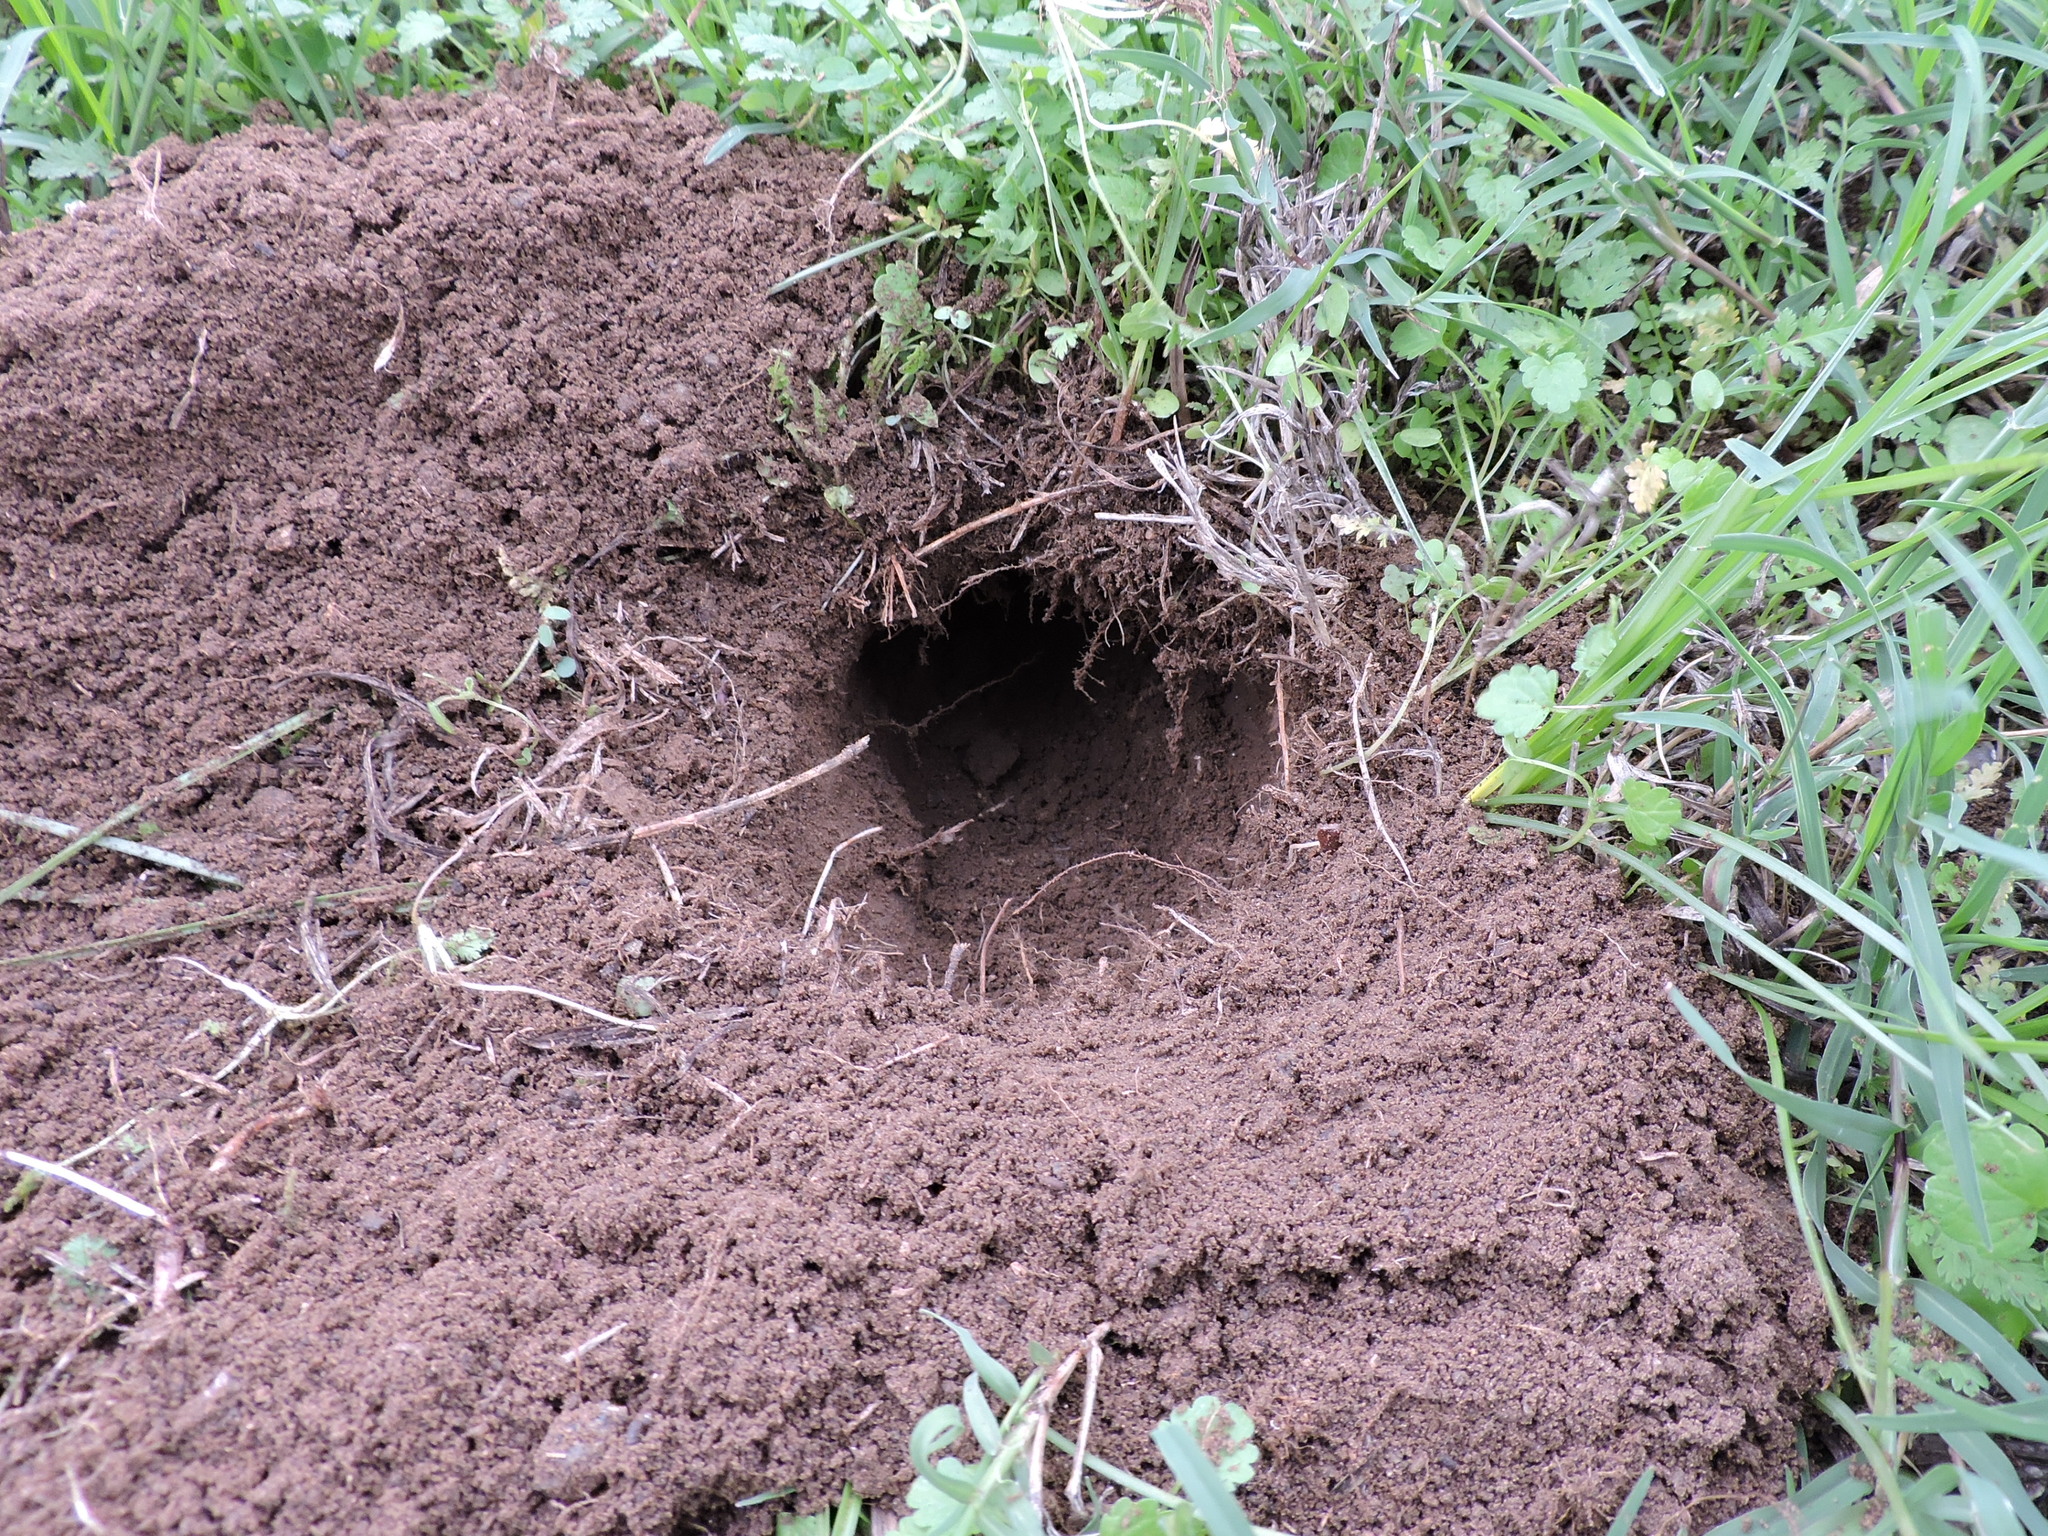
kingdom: Animalia
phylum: Chordata
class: Mammalia
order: Rodentia
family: Geomyidae
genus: Geomys
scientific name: Geomys texensis
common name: Llano pocket gopher
